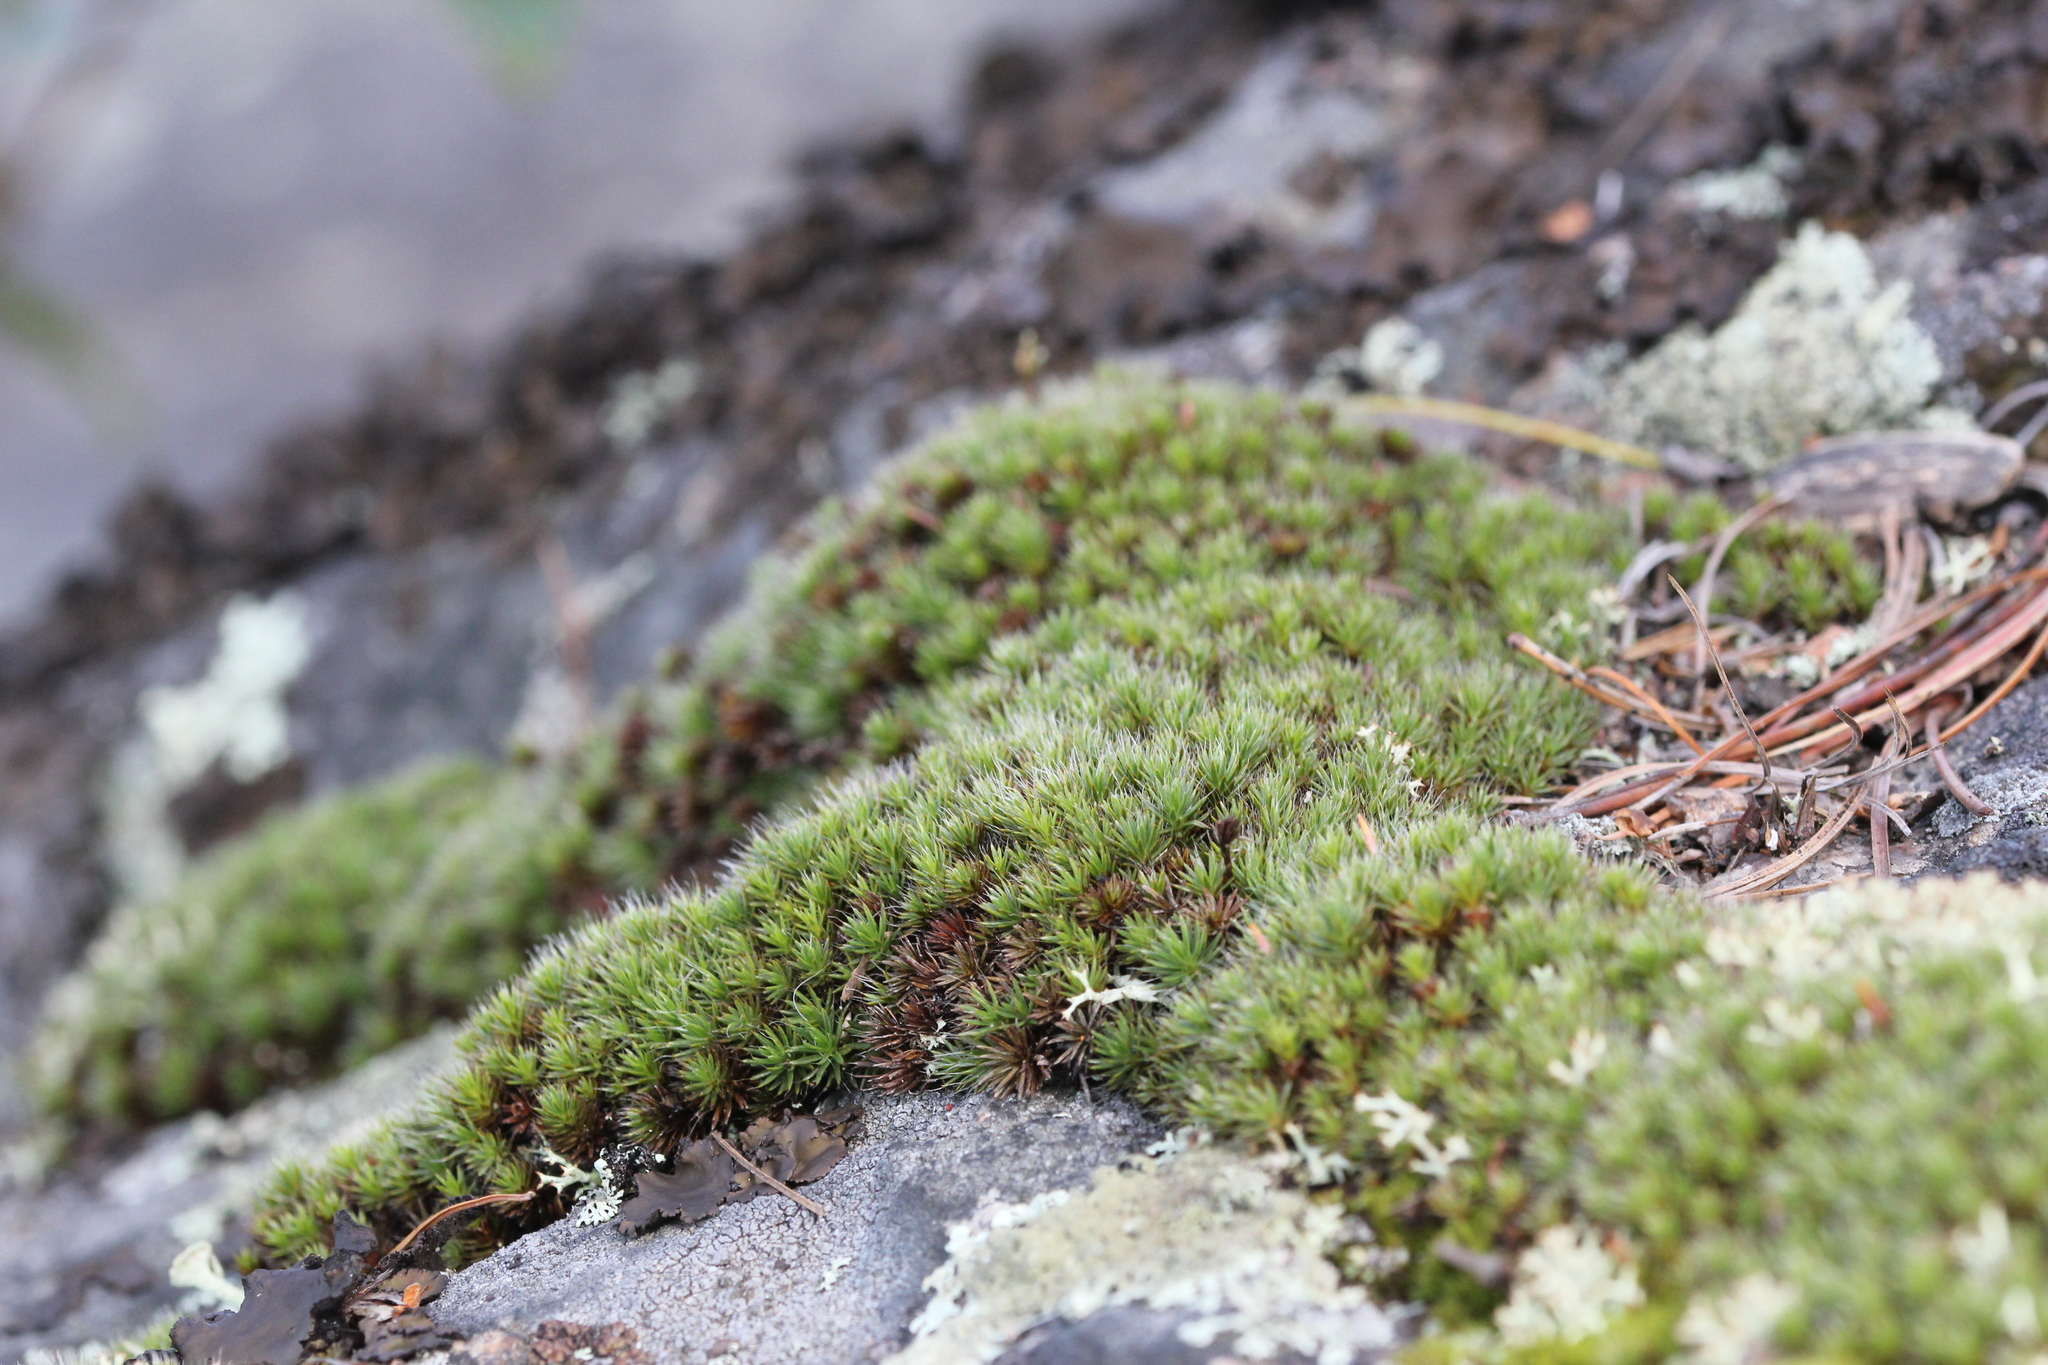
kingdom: Plantae
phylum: Bryophyta
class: Polytrichopsida
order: Polytrichales
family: Polytrichaceae
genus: Polytrichum
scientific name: Polytrichum piliferum
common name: Bristly haircap
